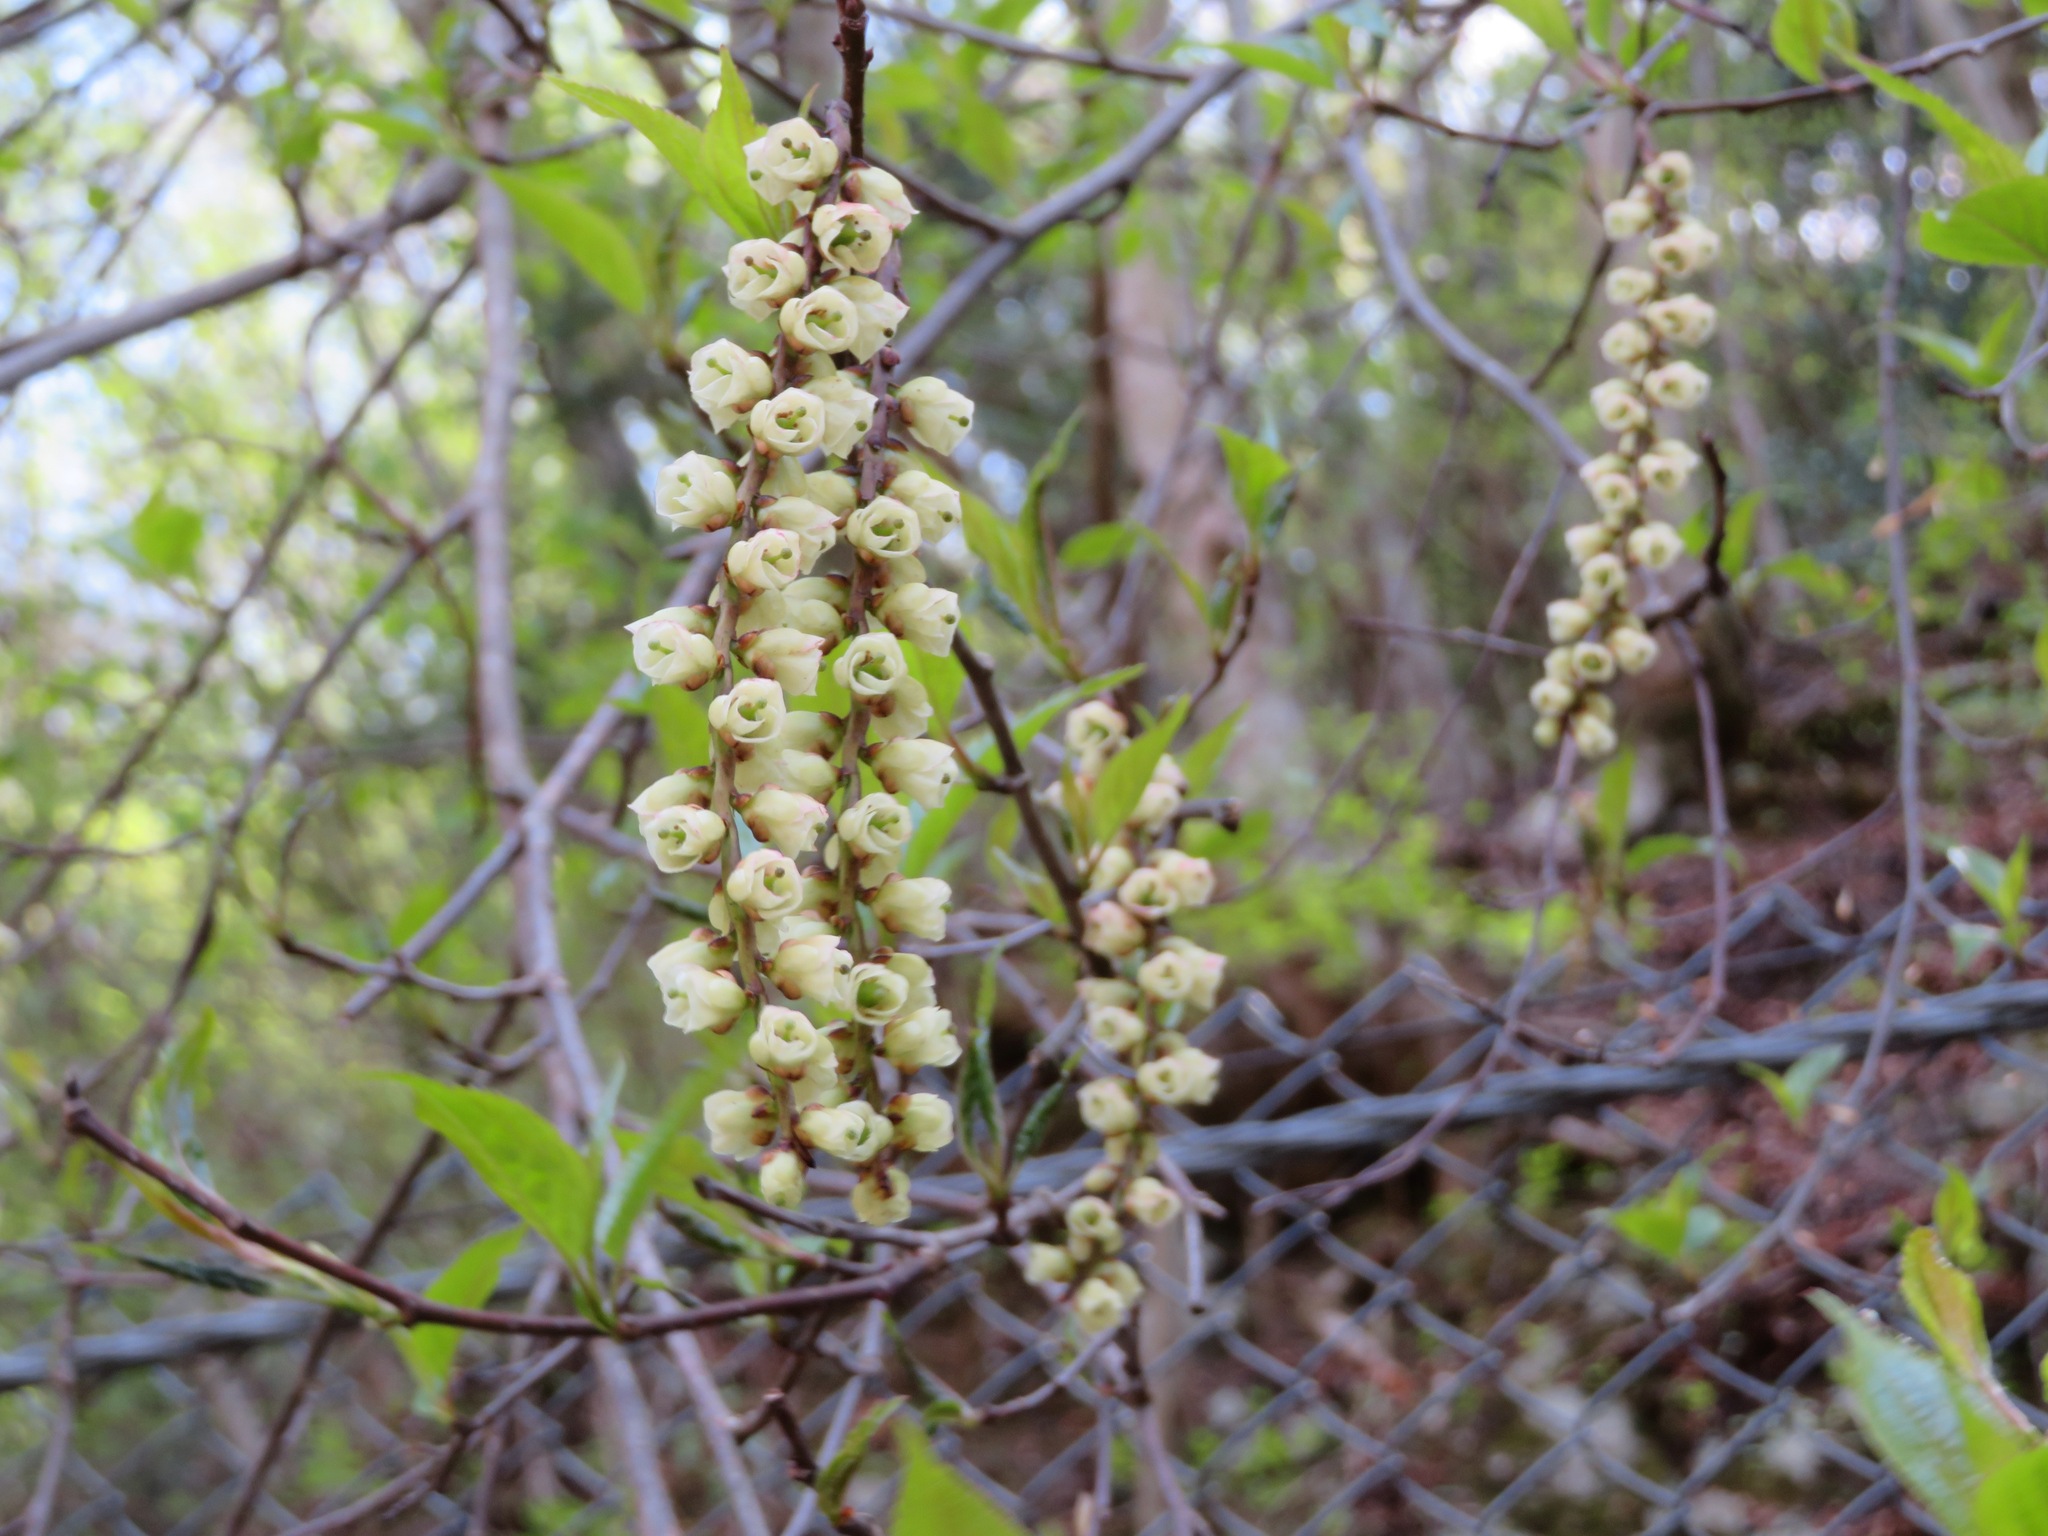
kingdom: Plantae
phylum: Tracheophyta
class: Magnoliopsida
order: Crossosomatales
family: Stachyuraceae
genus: Stachyurus
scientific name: Stachyurus praecox
